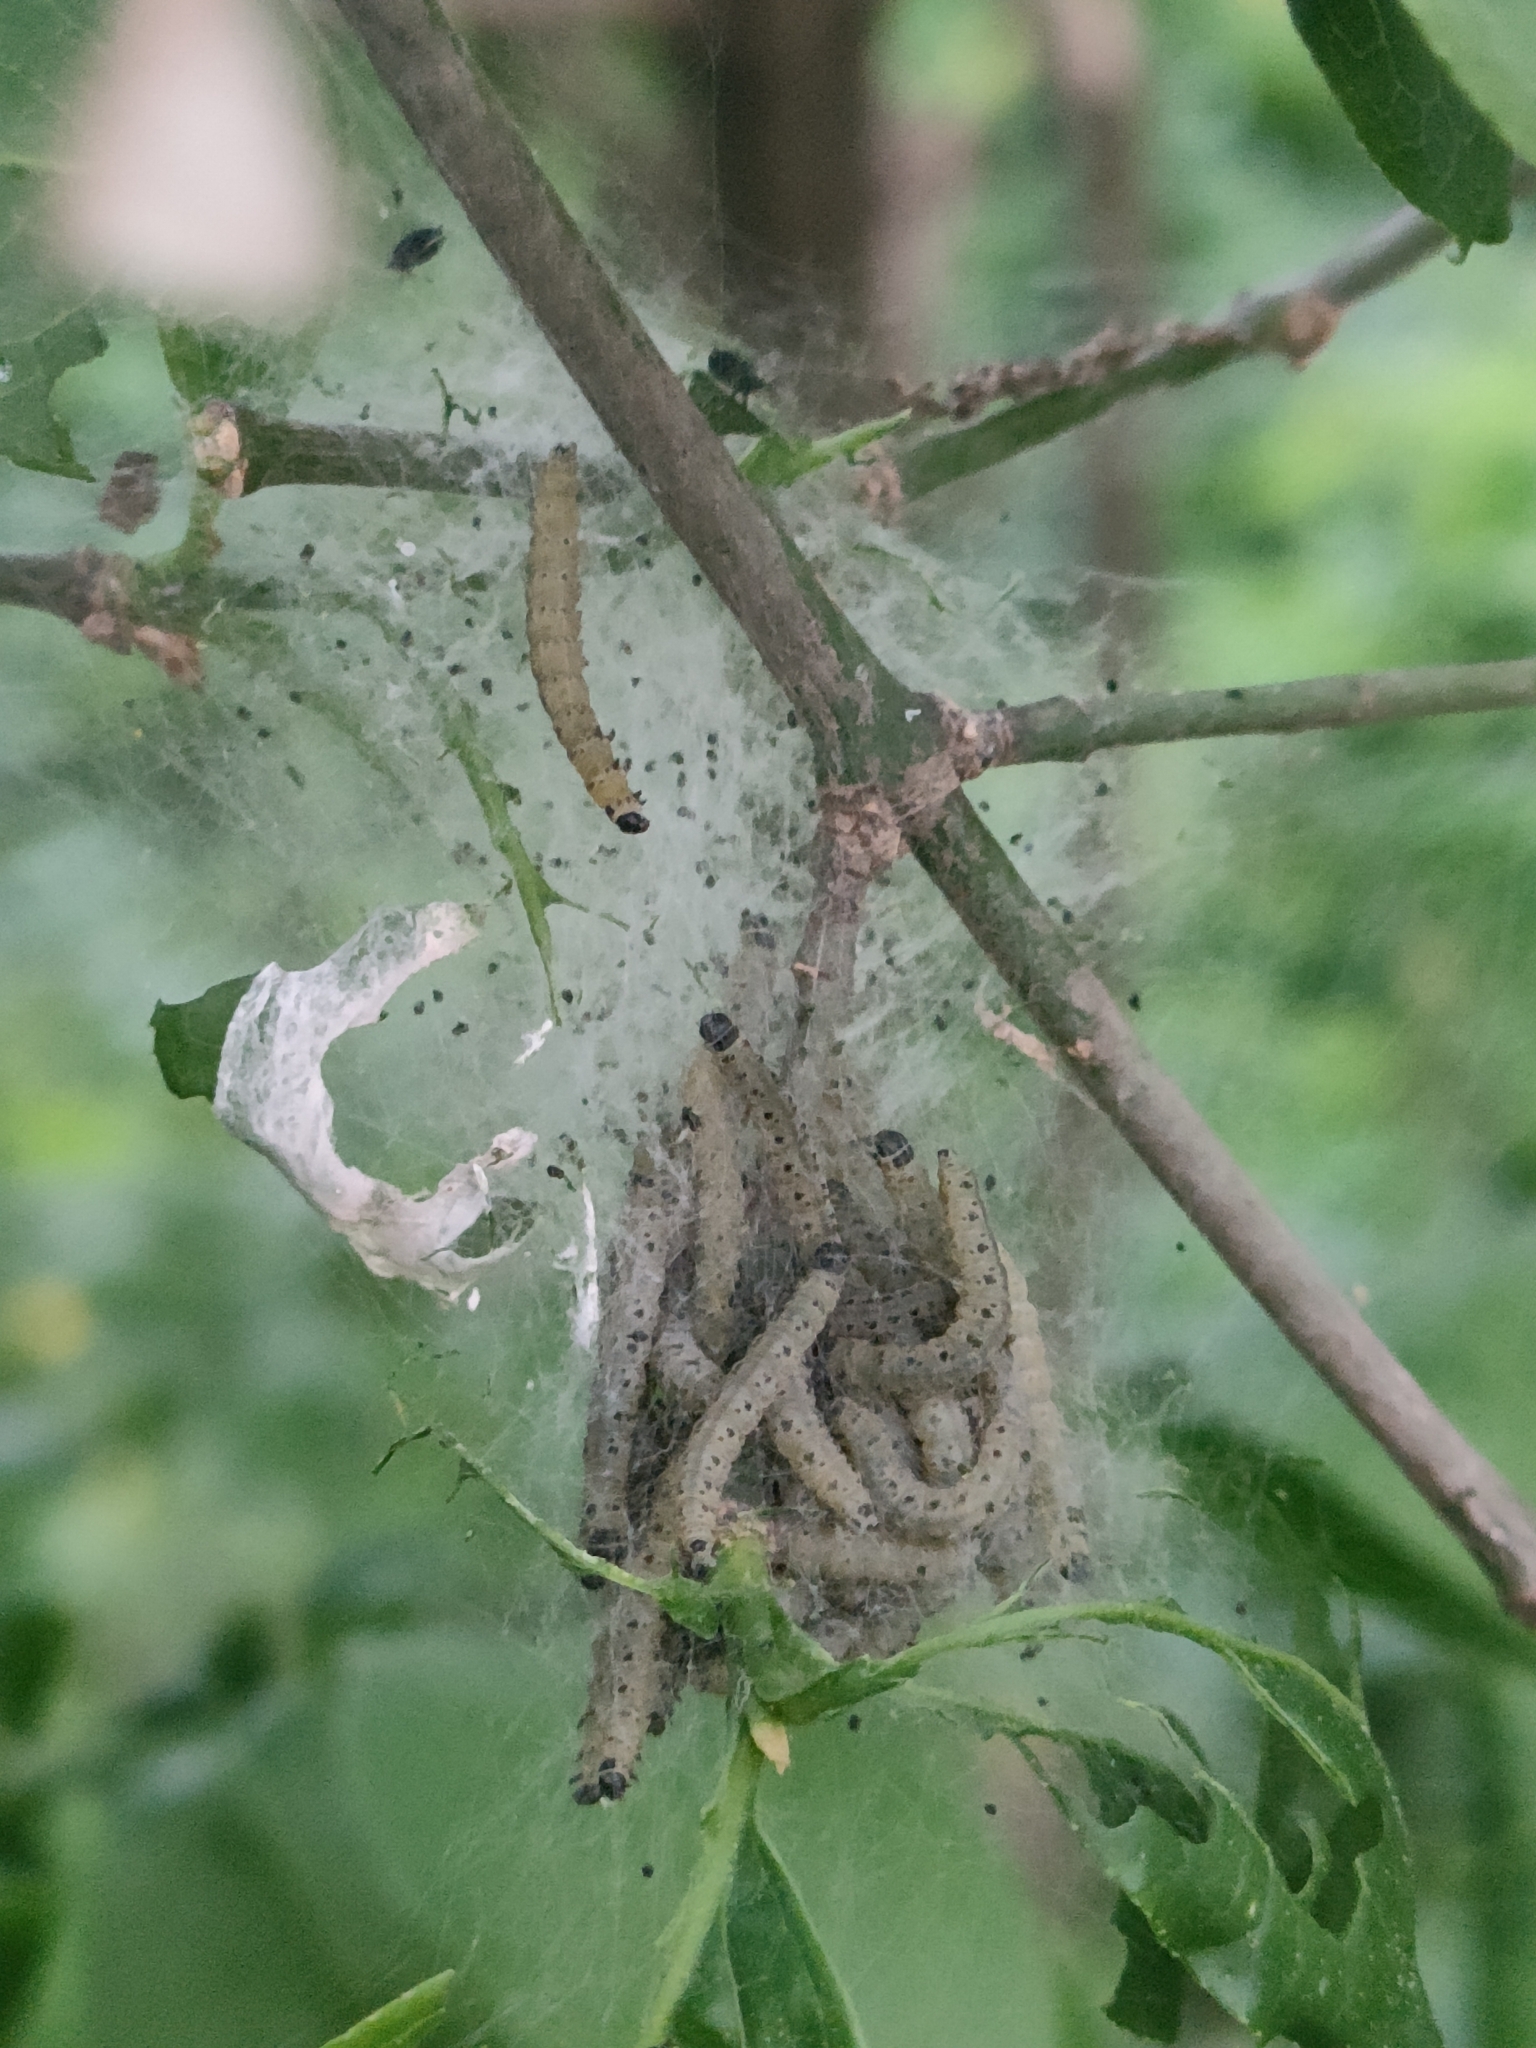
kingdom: Animalia
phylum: Arthropoda
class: Insecta
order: Lepidoptera
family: Yponomeutidae
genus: Yponomeuta
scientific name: Yponomeuta cagnagellus
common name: Spindle ermine
